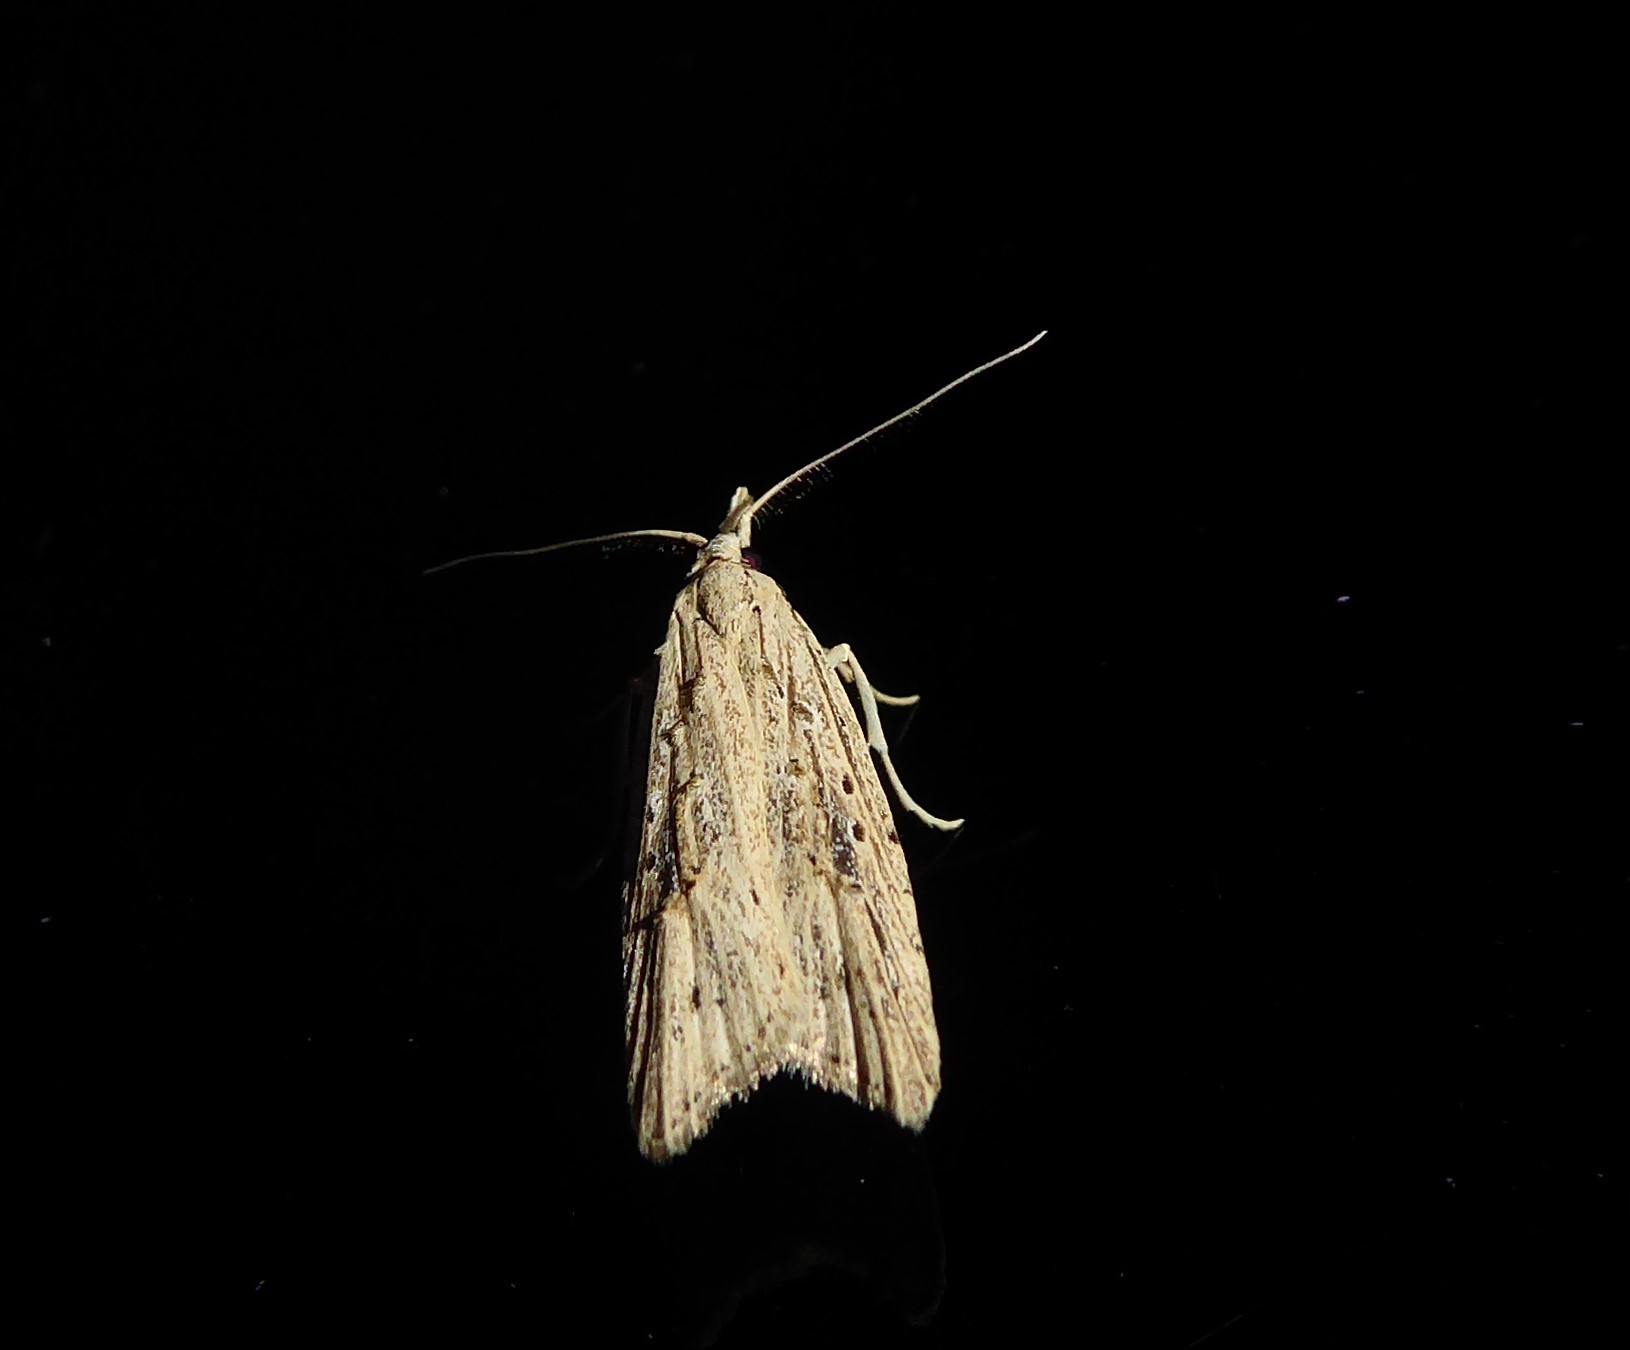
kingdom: Animalia
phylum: Arthropoda
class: Insecta
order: Lepidoptera
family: Carposinidae
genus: Carposina
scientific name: Carposina Heterocrossa exochana
